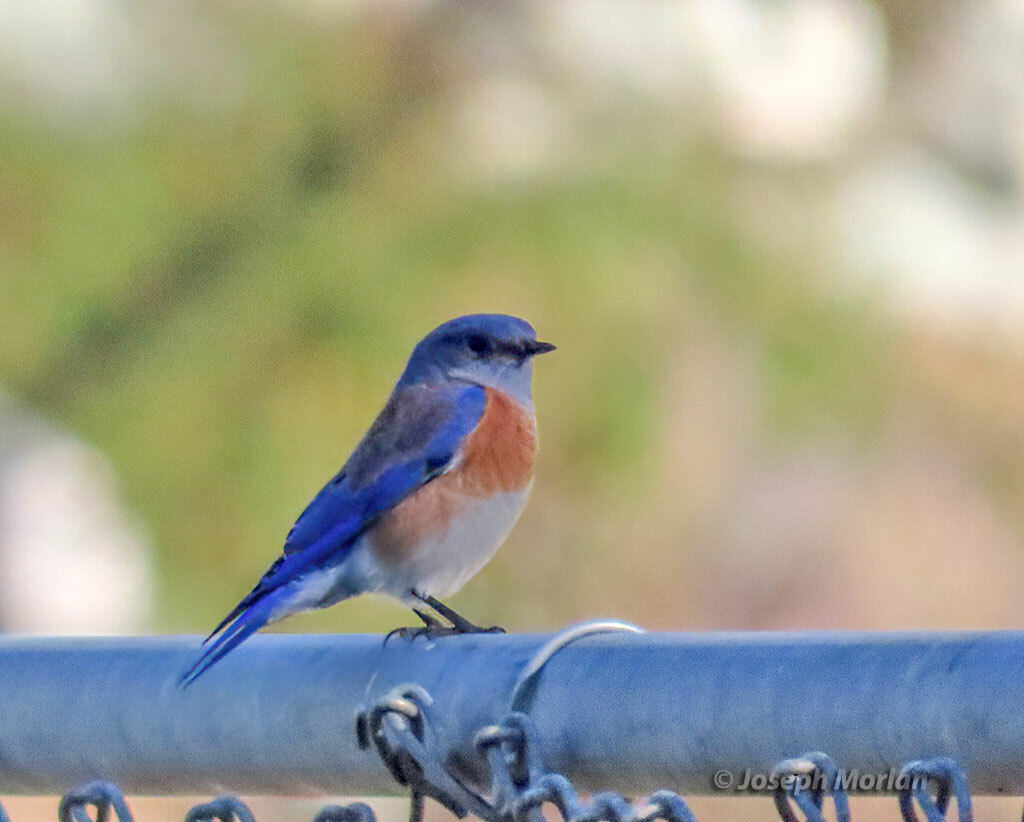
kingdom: Animalia
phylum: Chordata
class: Aves
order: Passeriformes
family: Turdidae
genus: Sialia
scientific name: Sialia mexicana
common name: Western bluebird
